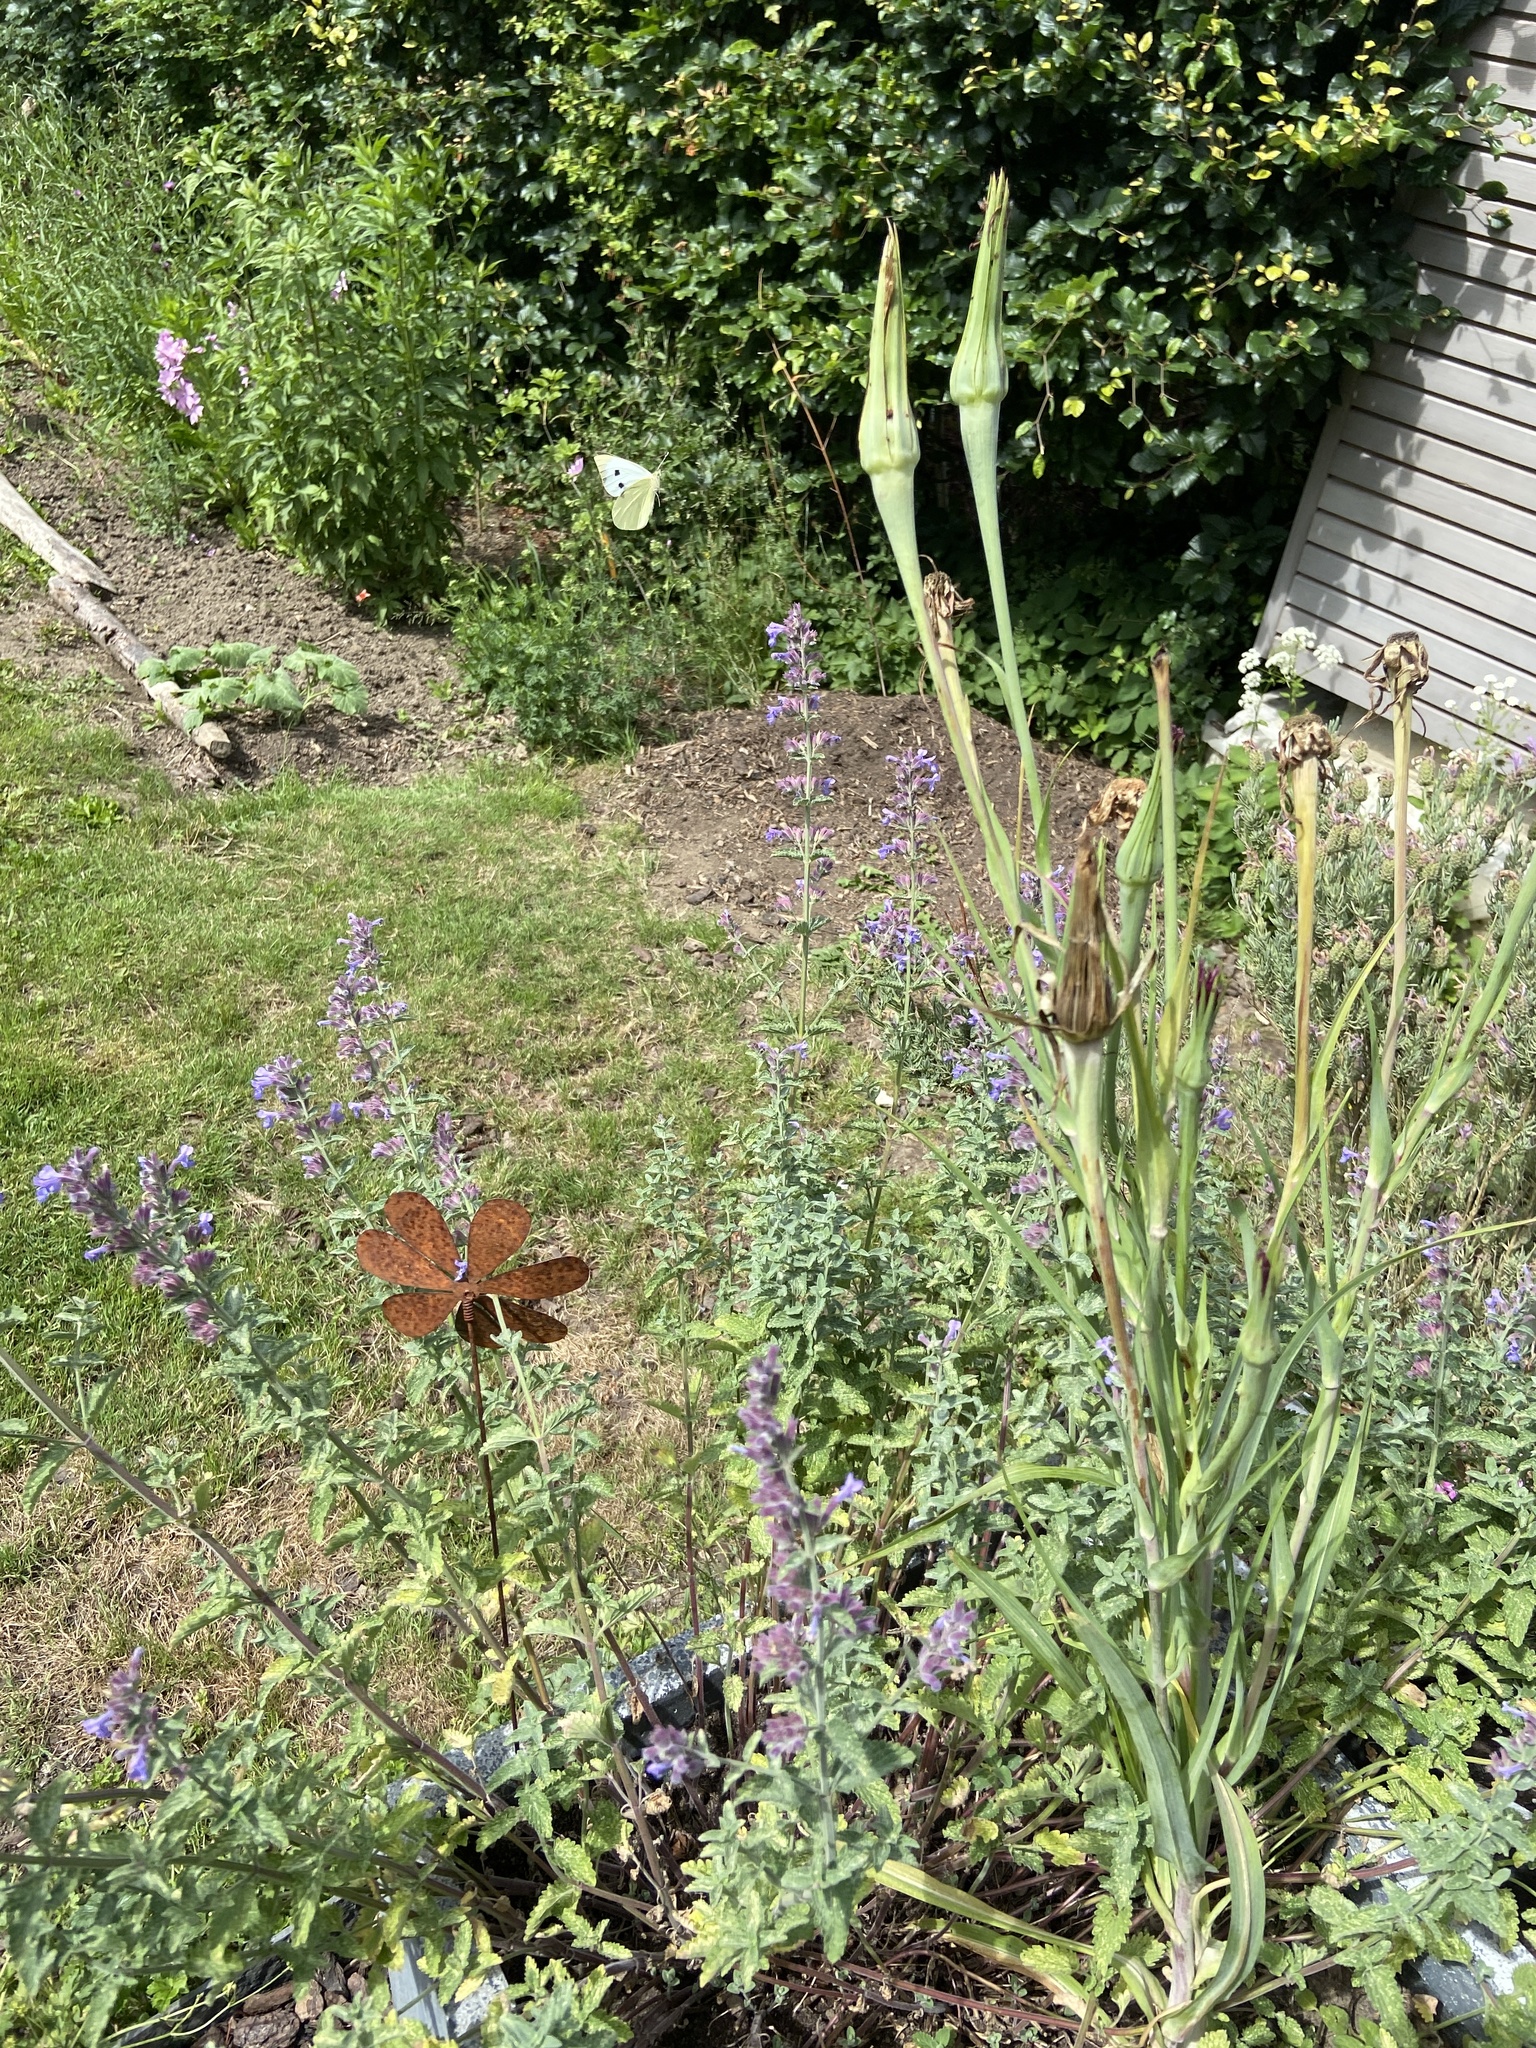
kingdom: Animalia
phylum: Arthropoda
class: Insecta
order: Lepidoptera
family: Pieridae
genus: Pieris
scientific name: Pieris brassicae
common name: Large white
